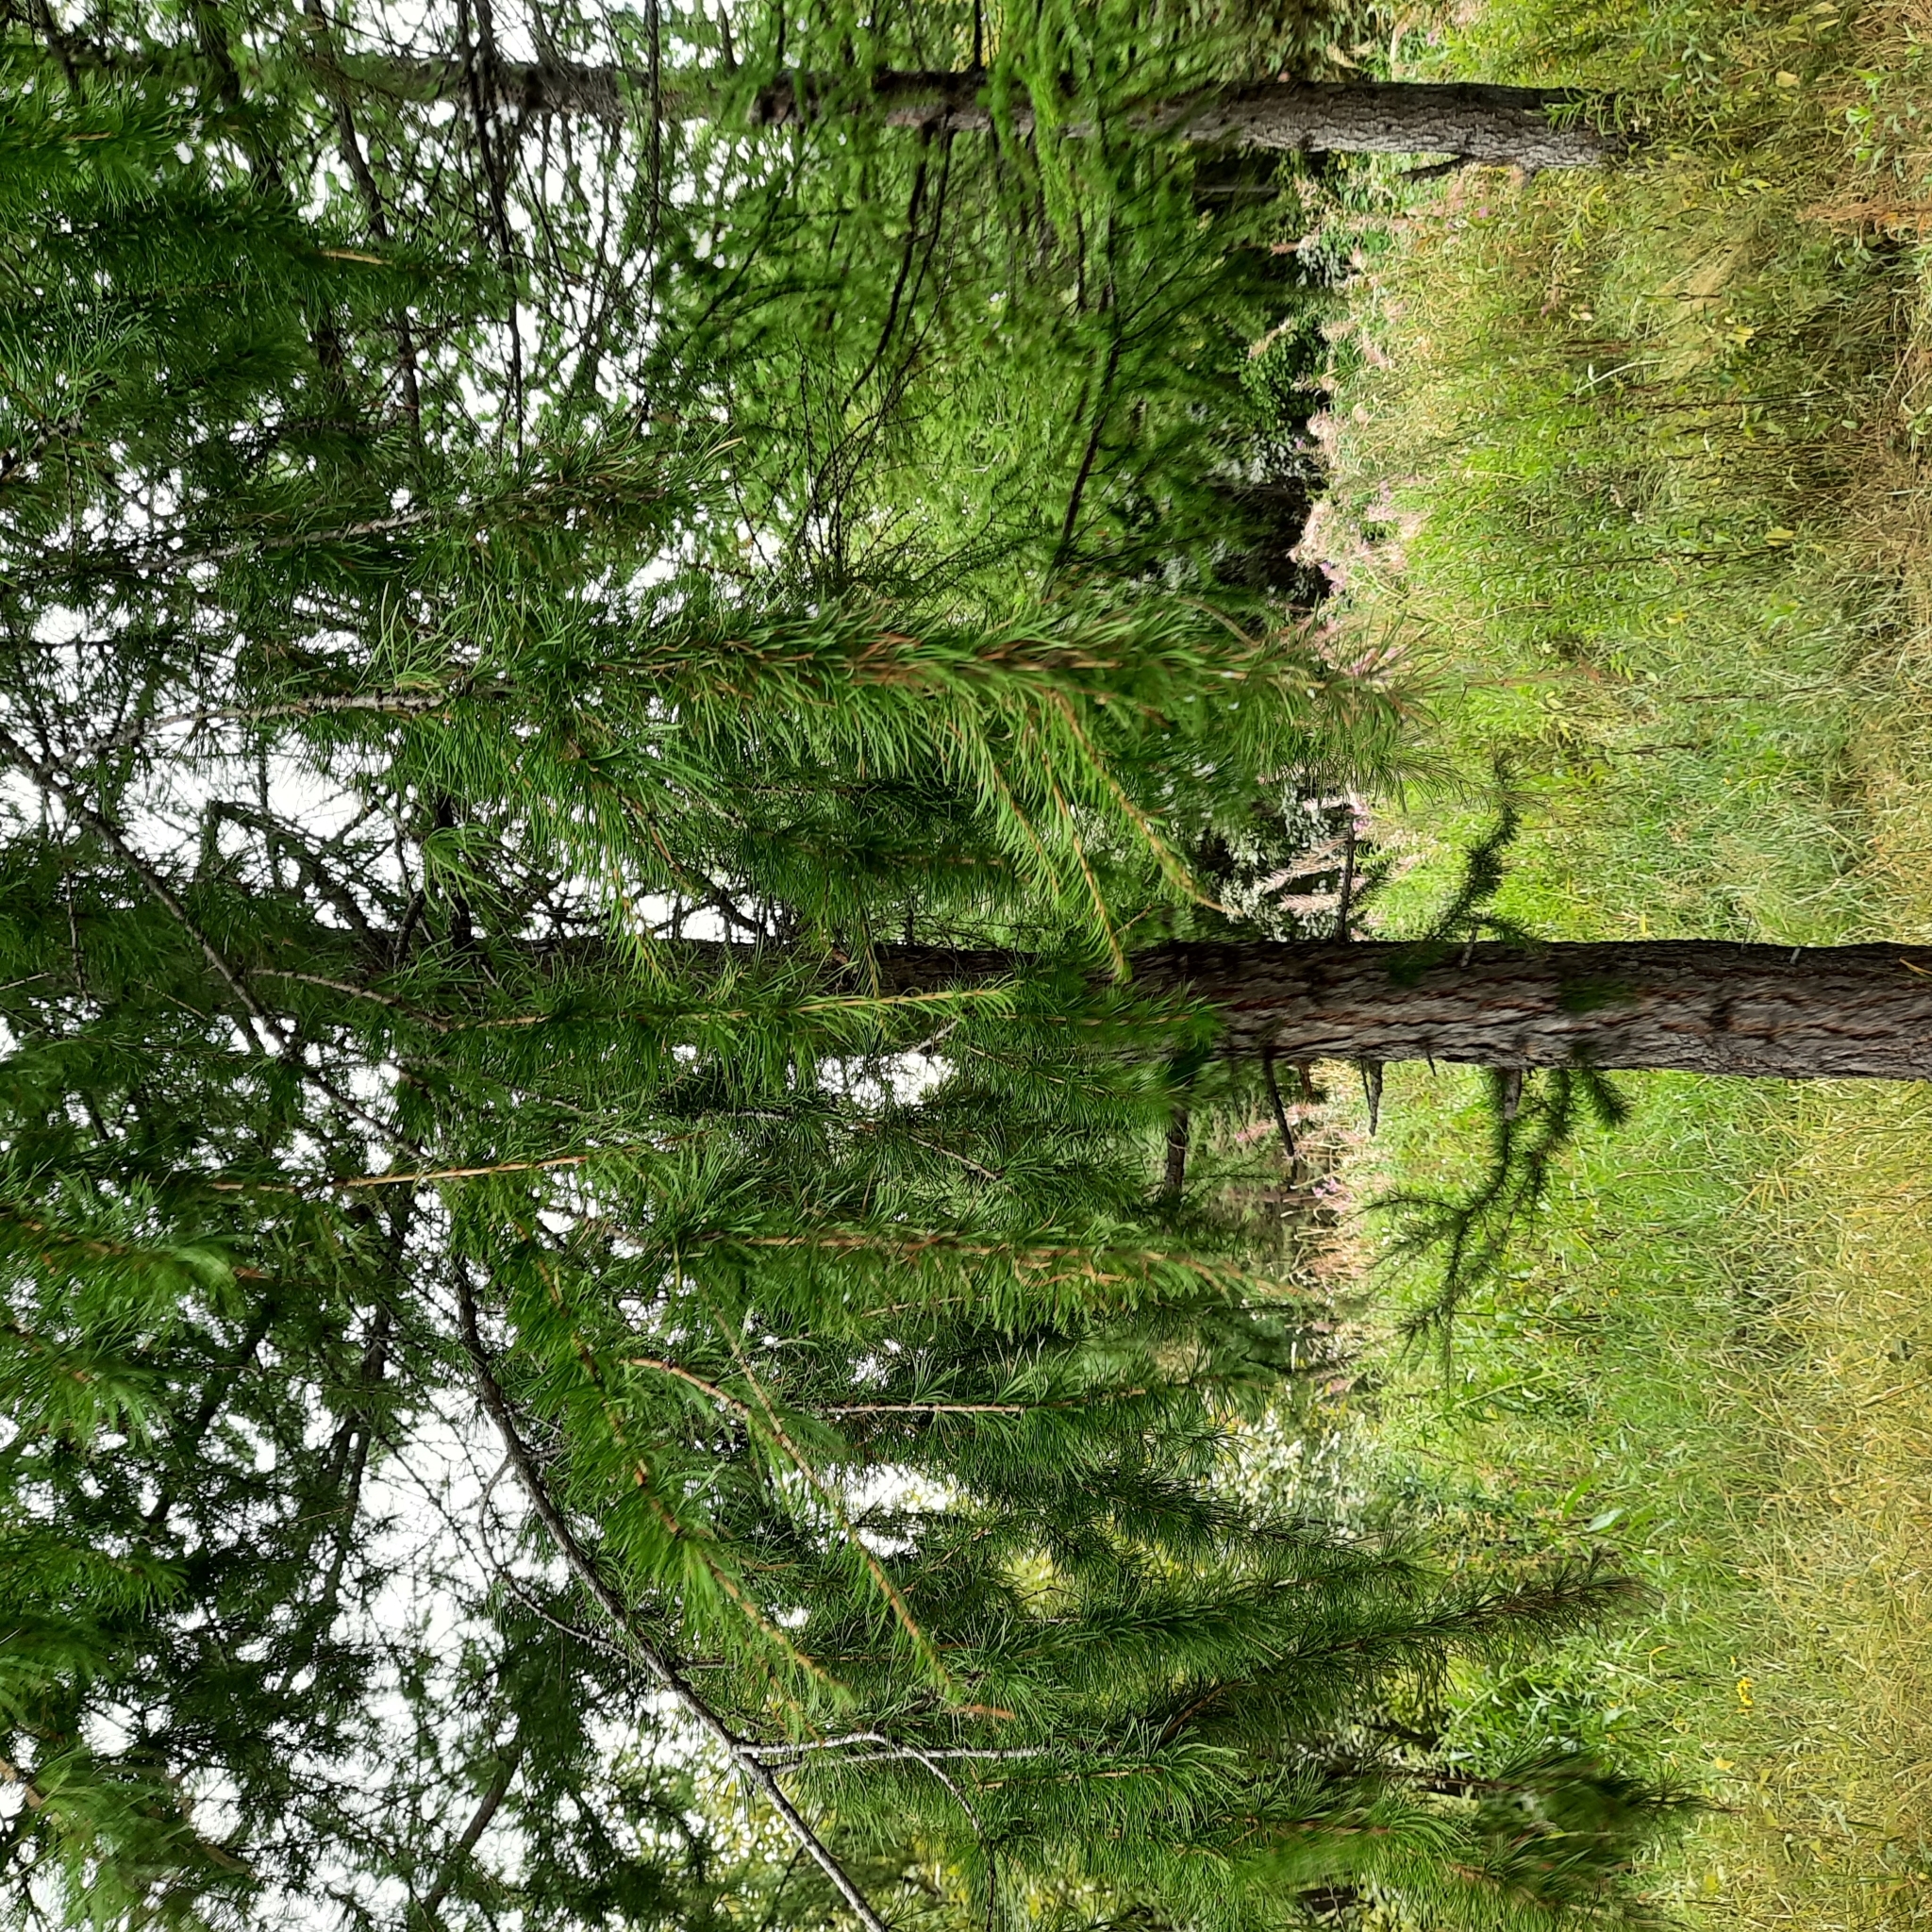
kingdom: Plantae
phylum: Tracheophyta
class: Pinopsida
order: Pinales
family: Pinaceae
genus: Larix
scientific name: Larix sibirica
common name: Siberian larch
